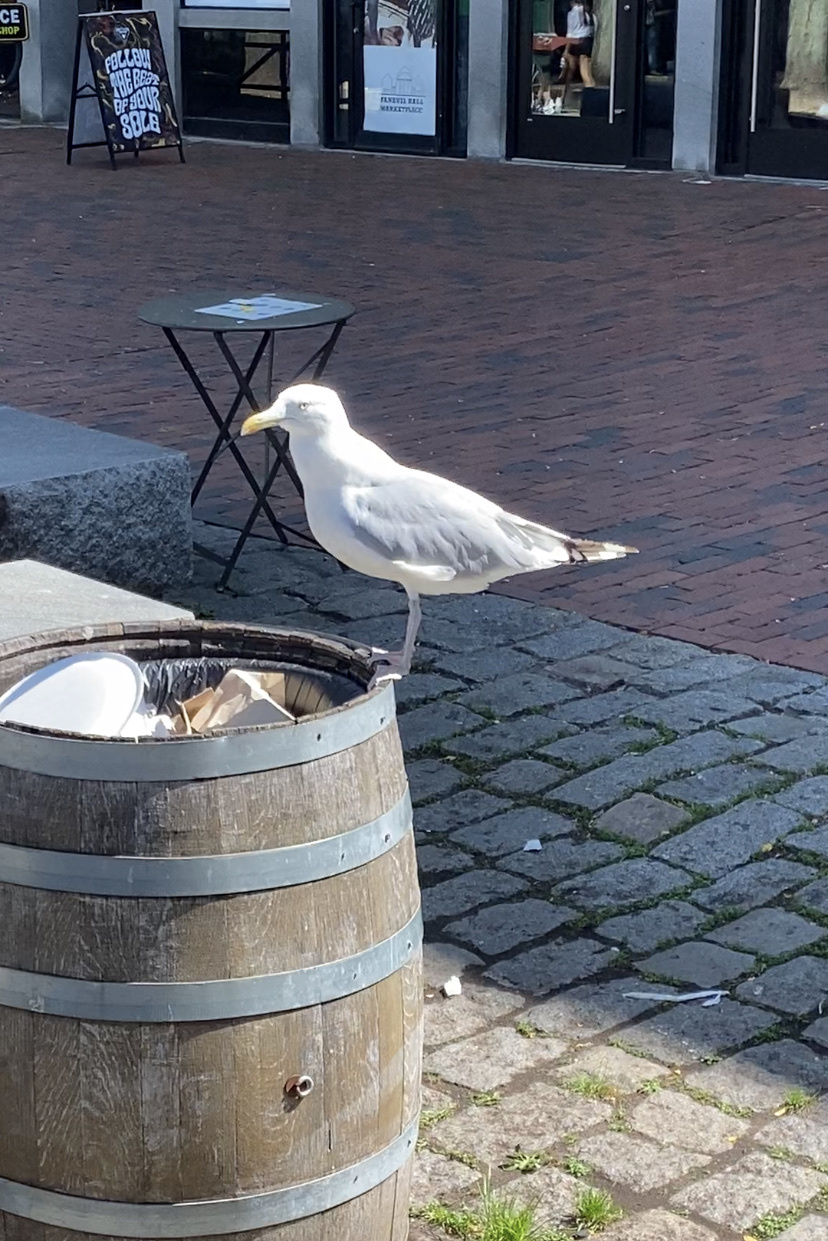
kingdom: Animalia
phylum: Chordata
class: Aves
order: Charadriiformes
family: Laridae
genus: Larus
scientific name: Larus argentatus
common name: Herring gull
